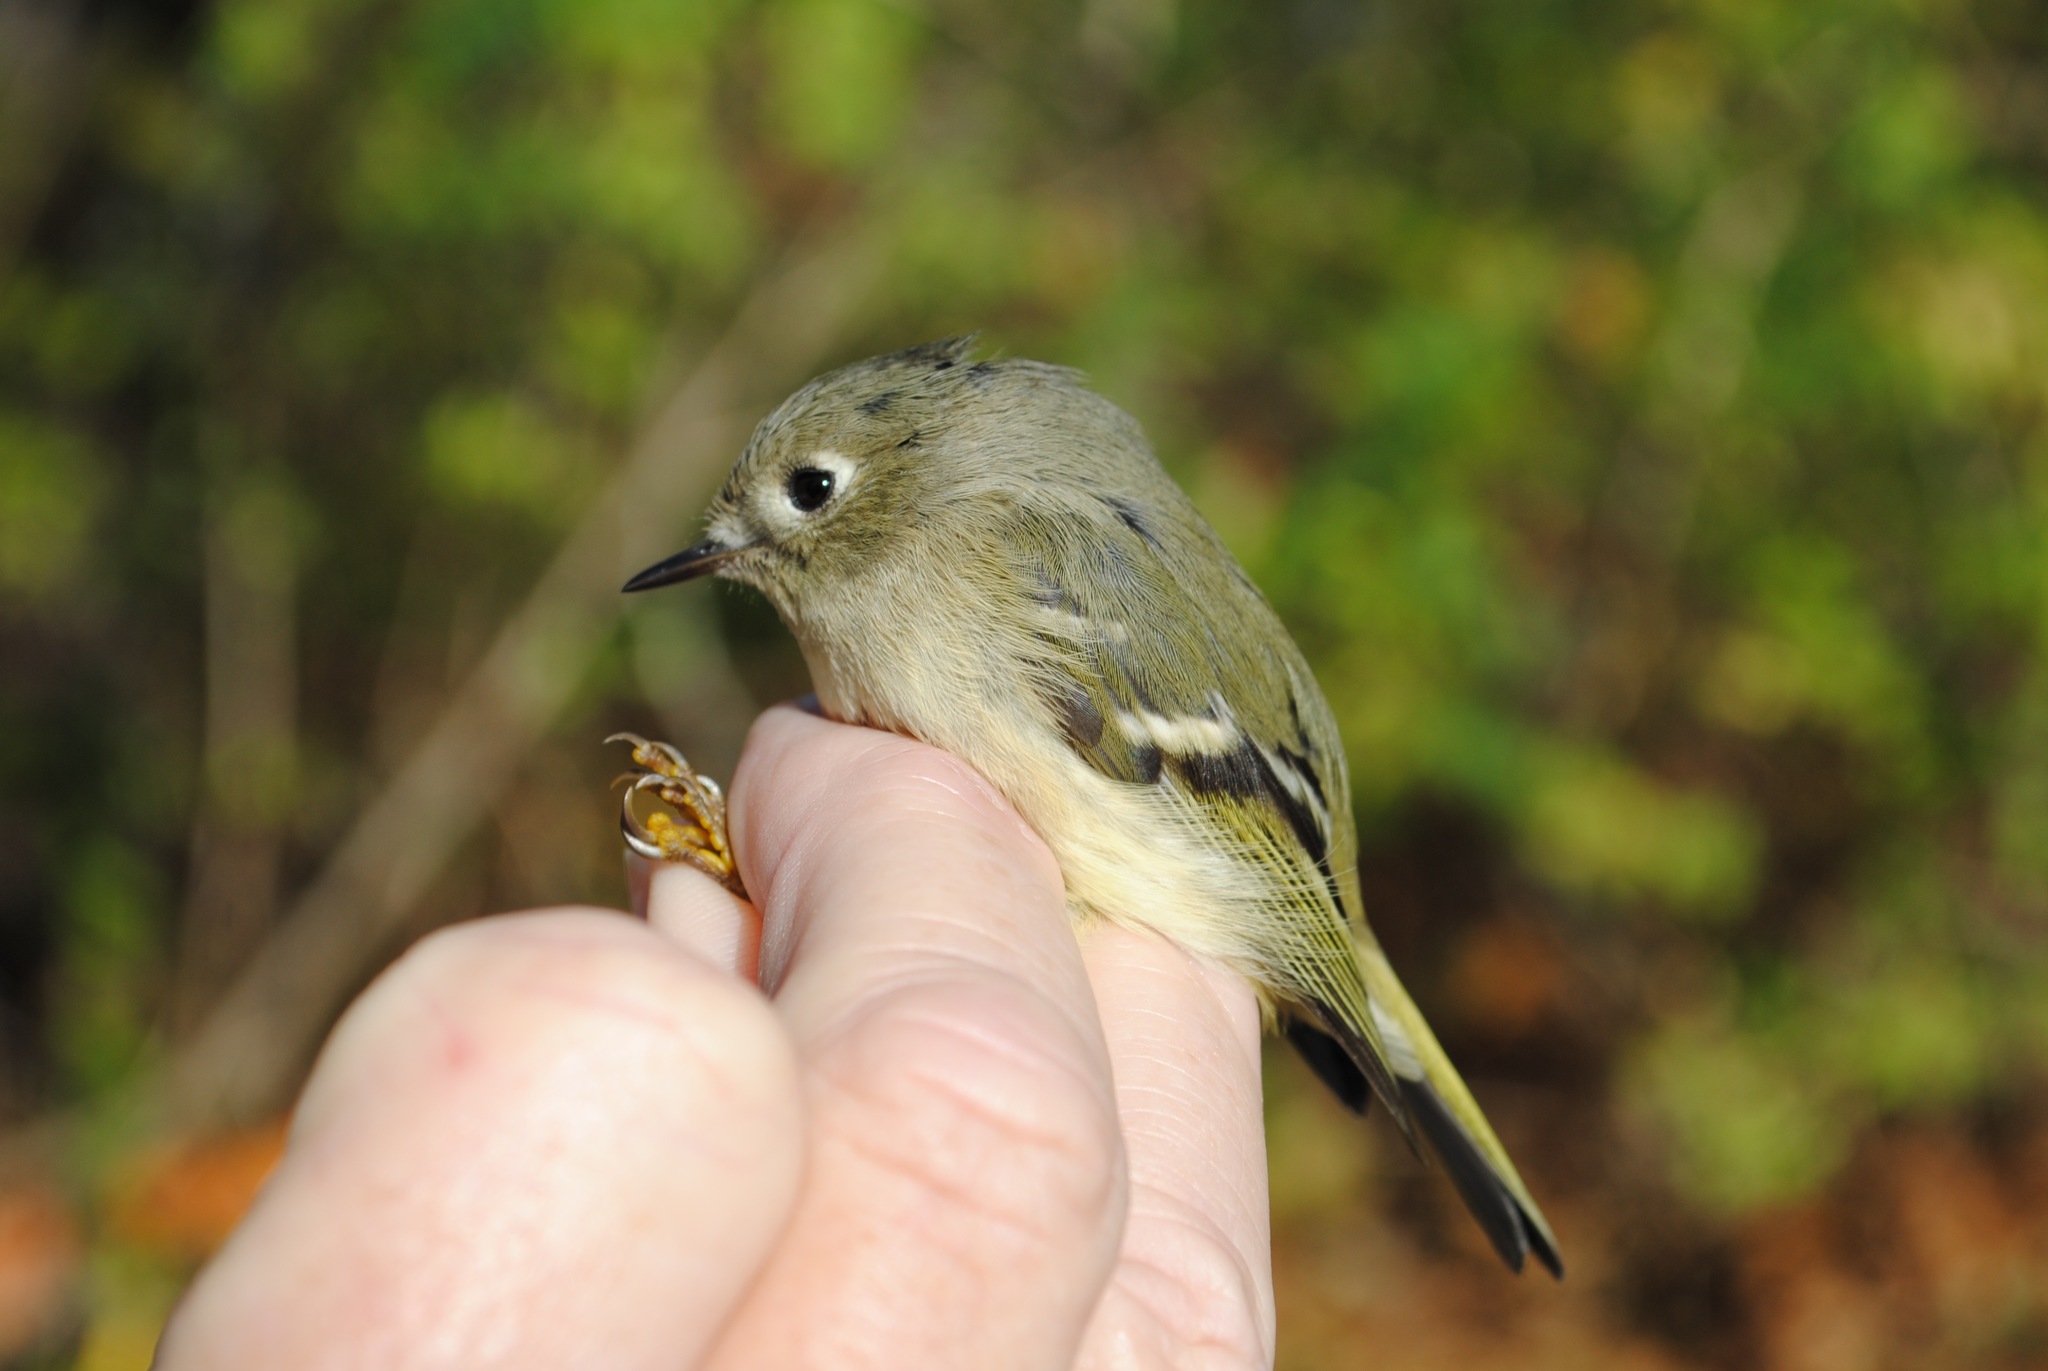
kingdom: Animalia
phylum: Chordata
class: Aves
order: Passeriformes
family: Regulidae
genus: Regulus
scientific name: Regulus calendula
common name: Ruby-crowned kinglet
